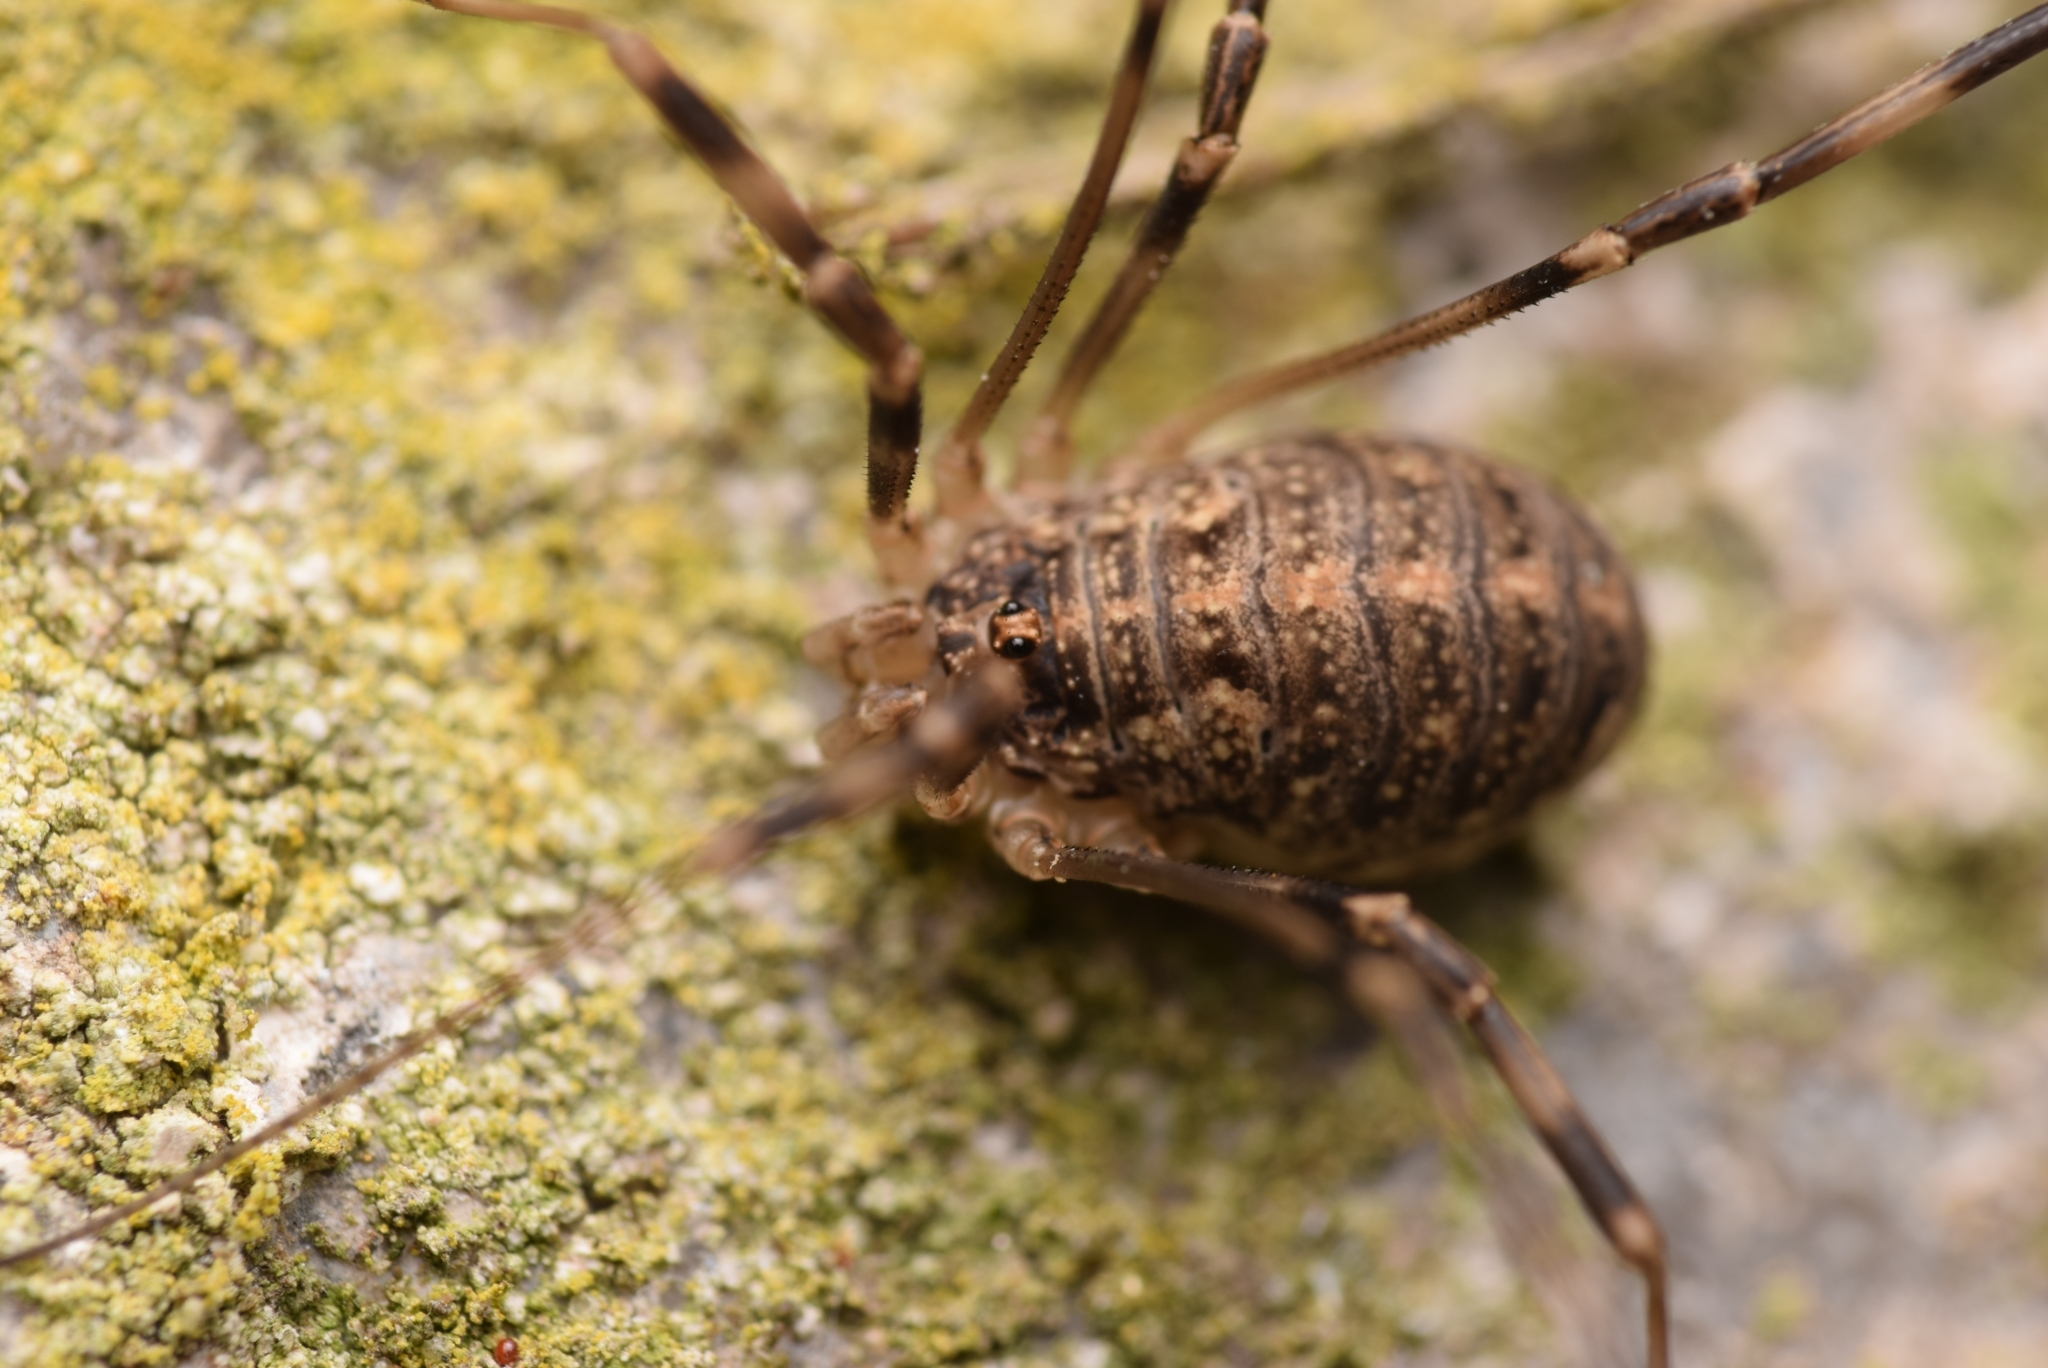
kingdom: Animalia
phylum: Arthropoda
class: Arachnida
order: Opiliones
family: Phalangiidae
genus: Opilio
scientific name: Opilio saxatilis
